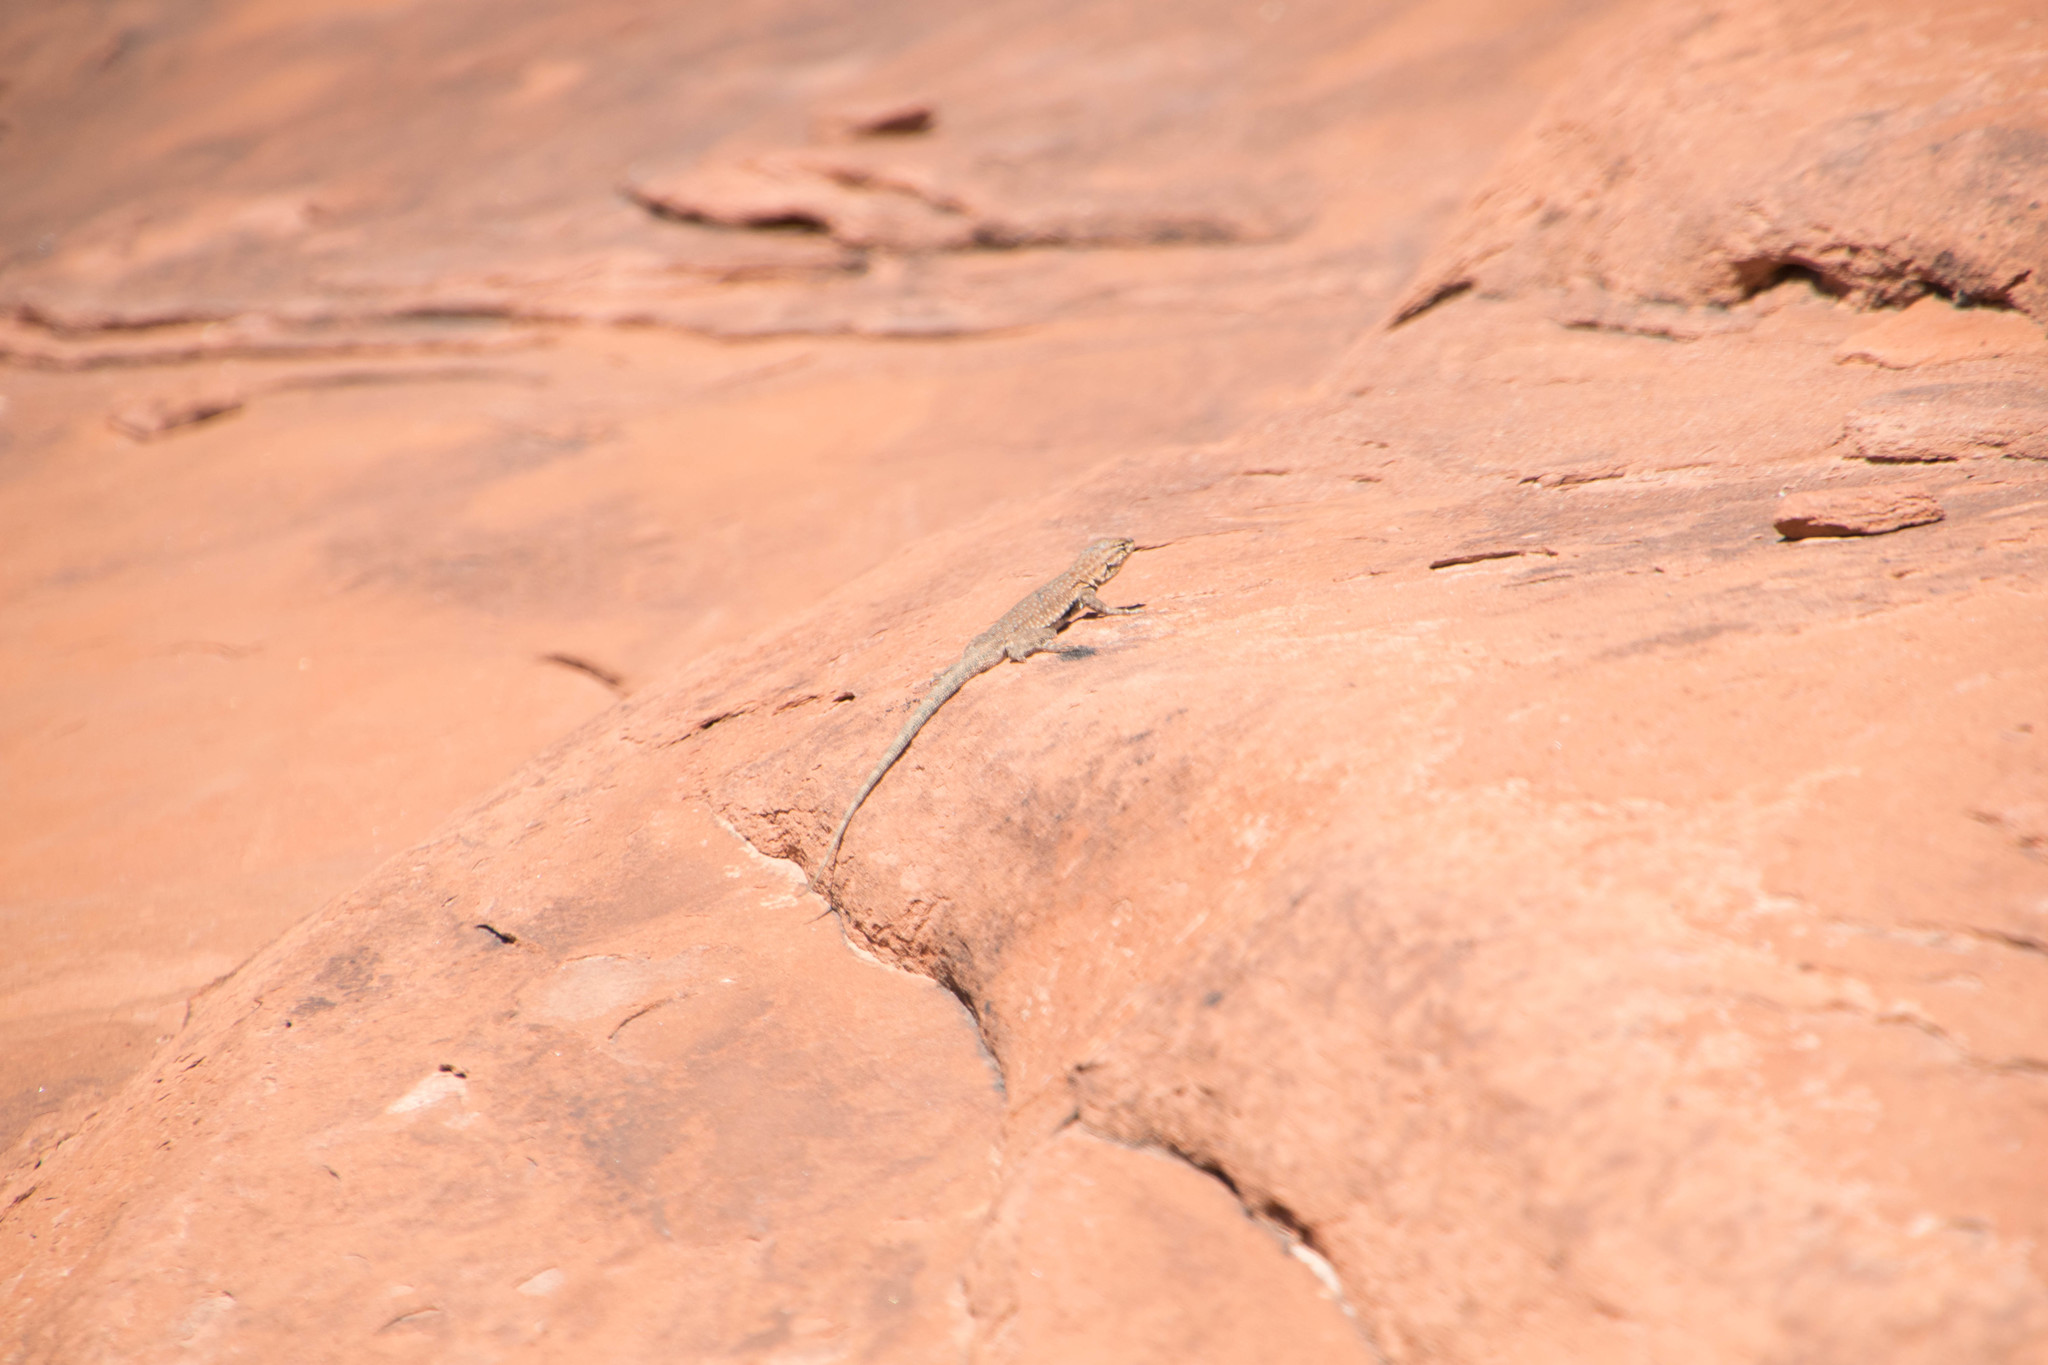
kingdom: Animalia
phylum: Chordata
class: Squamata
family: Phrynosomatidae
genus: Uta
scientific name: Uta stansburiana
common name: Side-blotched lizard
